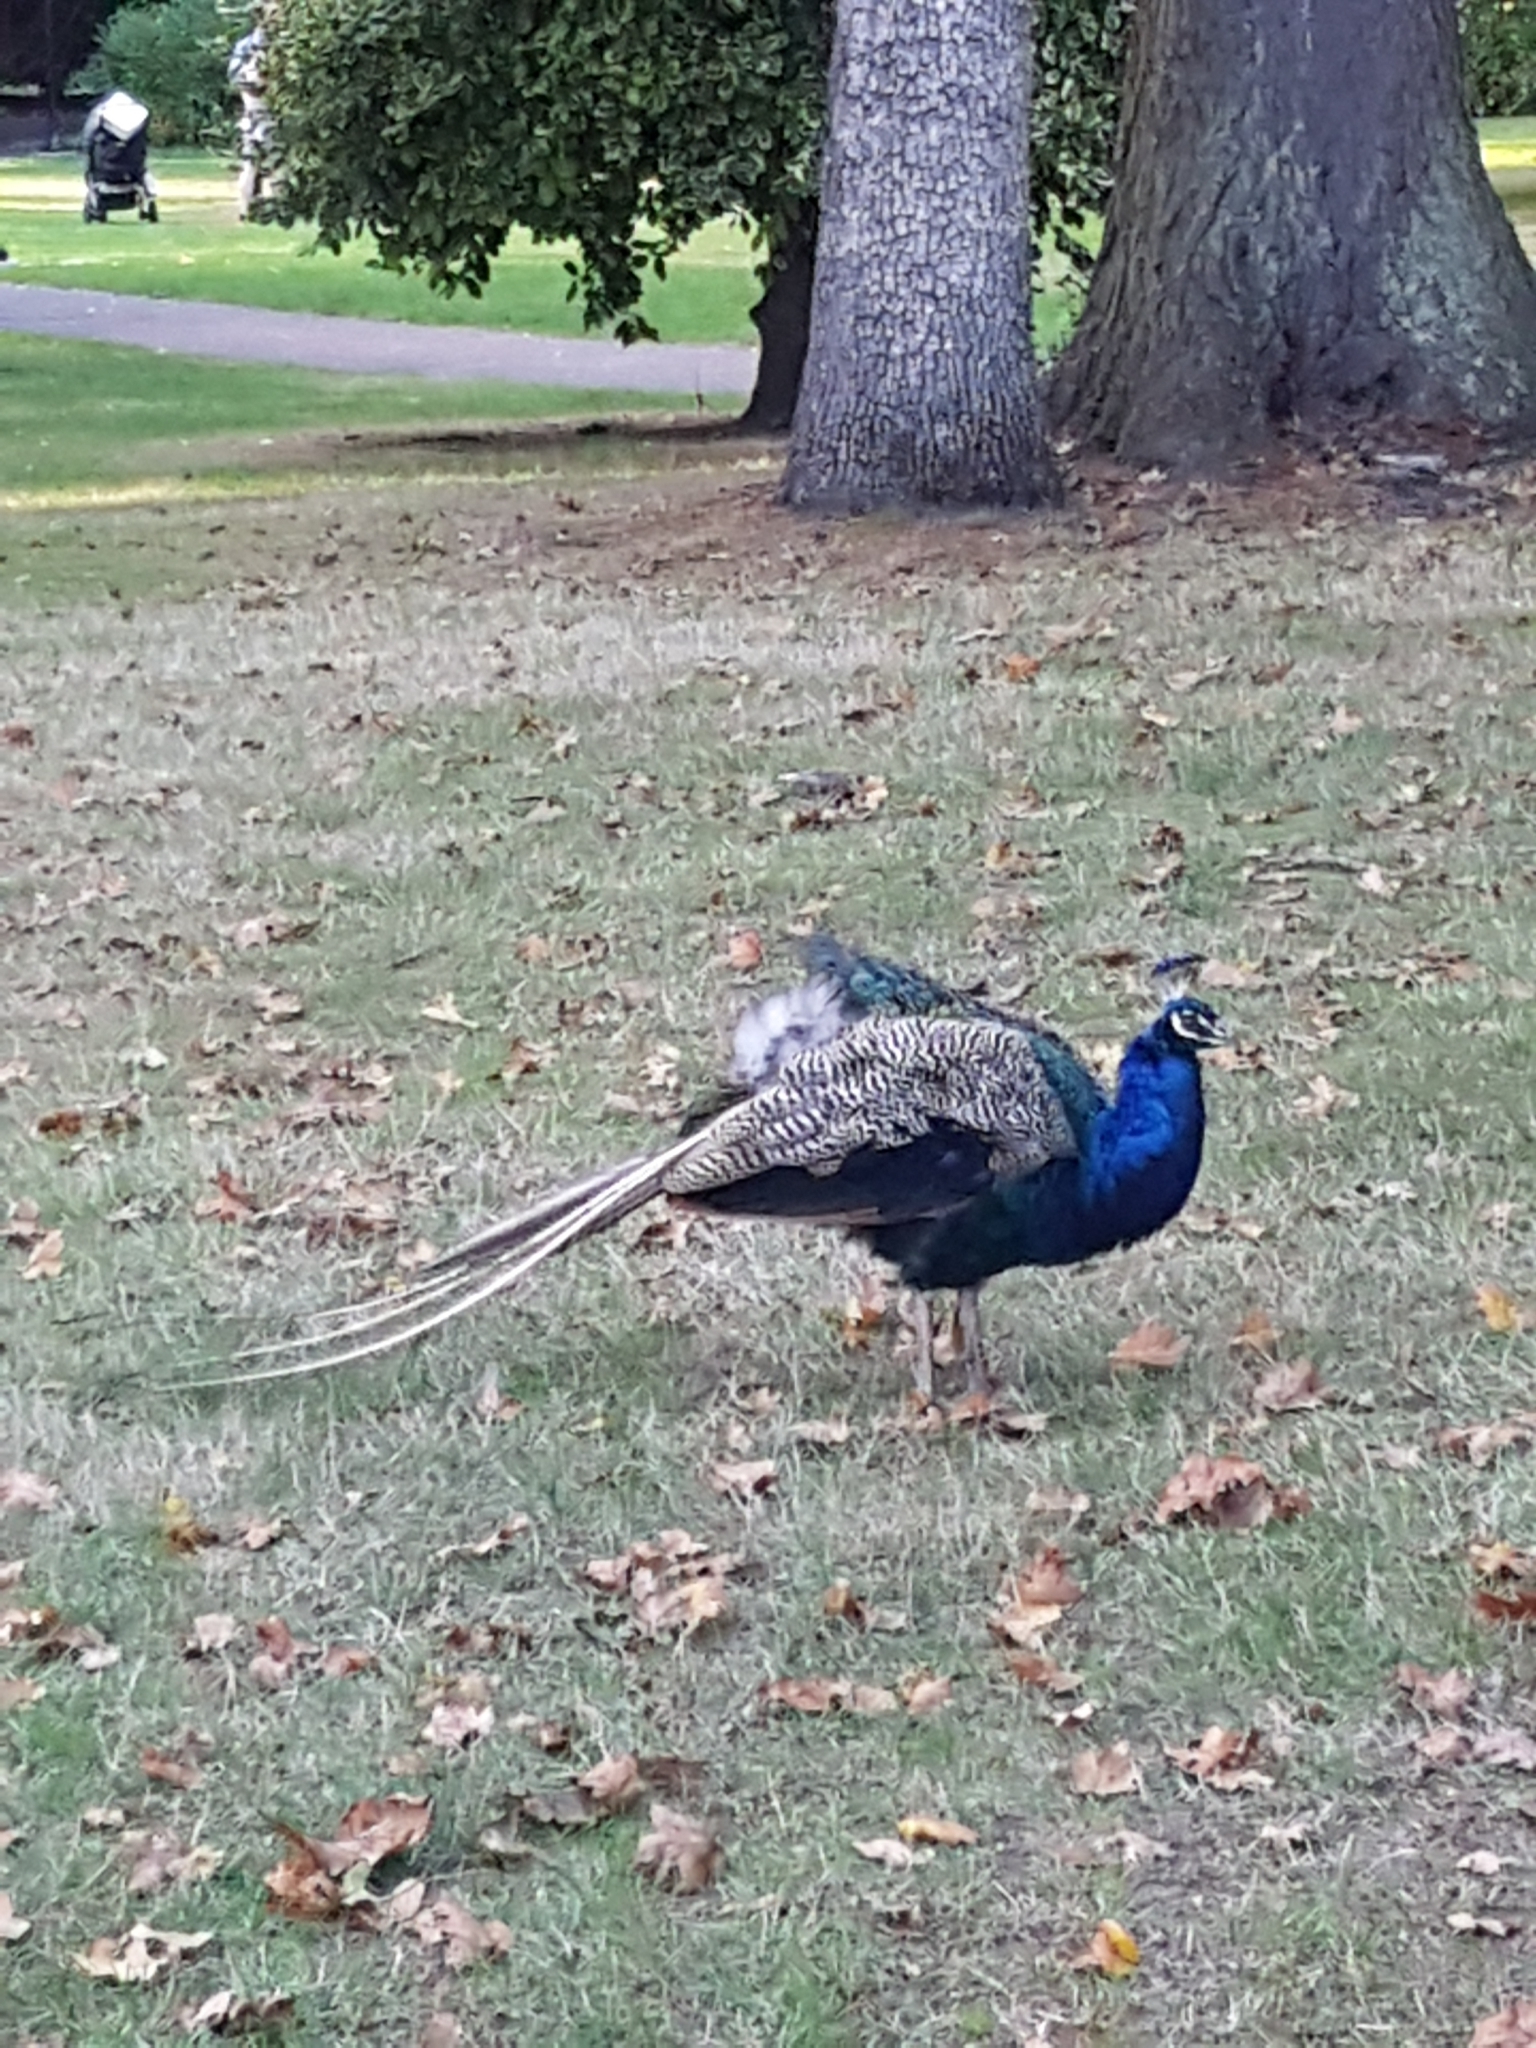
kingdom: Animalia
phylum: Chordata
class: Aves
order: Galliformes
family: Phasianidae
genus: Pavo
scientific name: Pavo cristatus
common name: Indian peafowl
